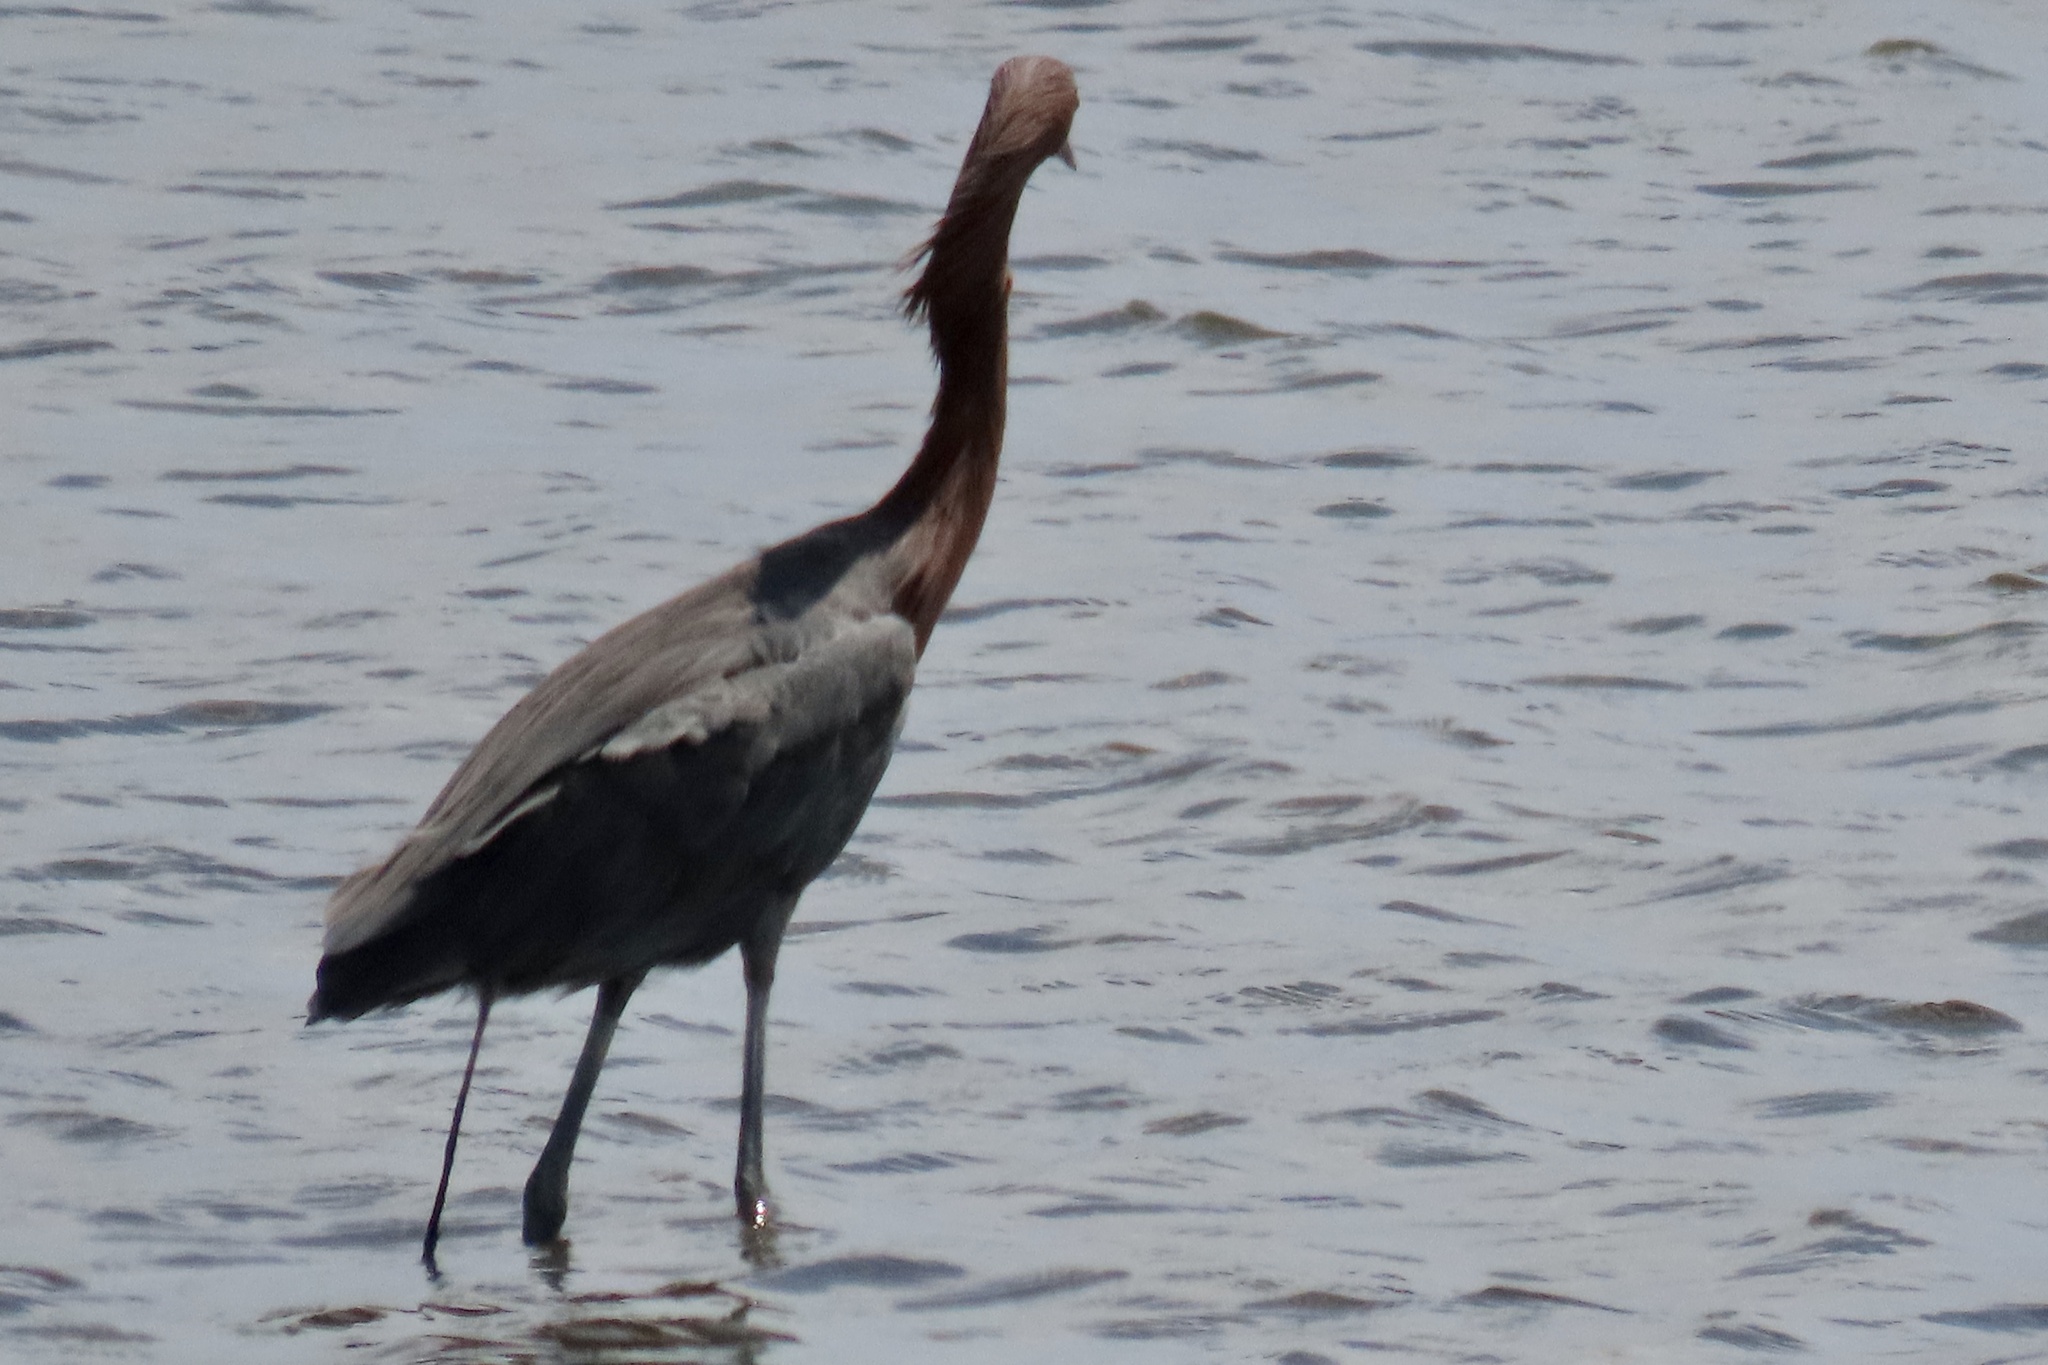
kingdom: Animalia
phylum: Chordata
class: Aves
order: Pelecaniformes
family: Ardeidae
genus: Egretta
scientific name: Egretta rufescens
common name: Reddish egret
